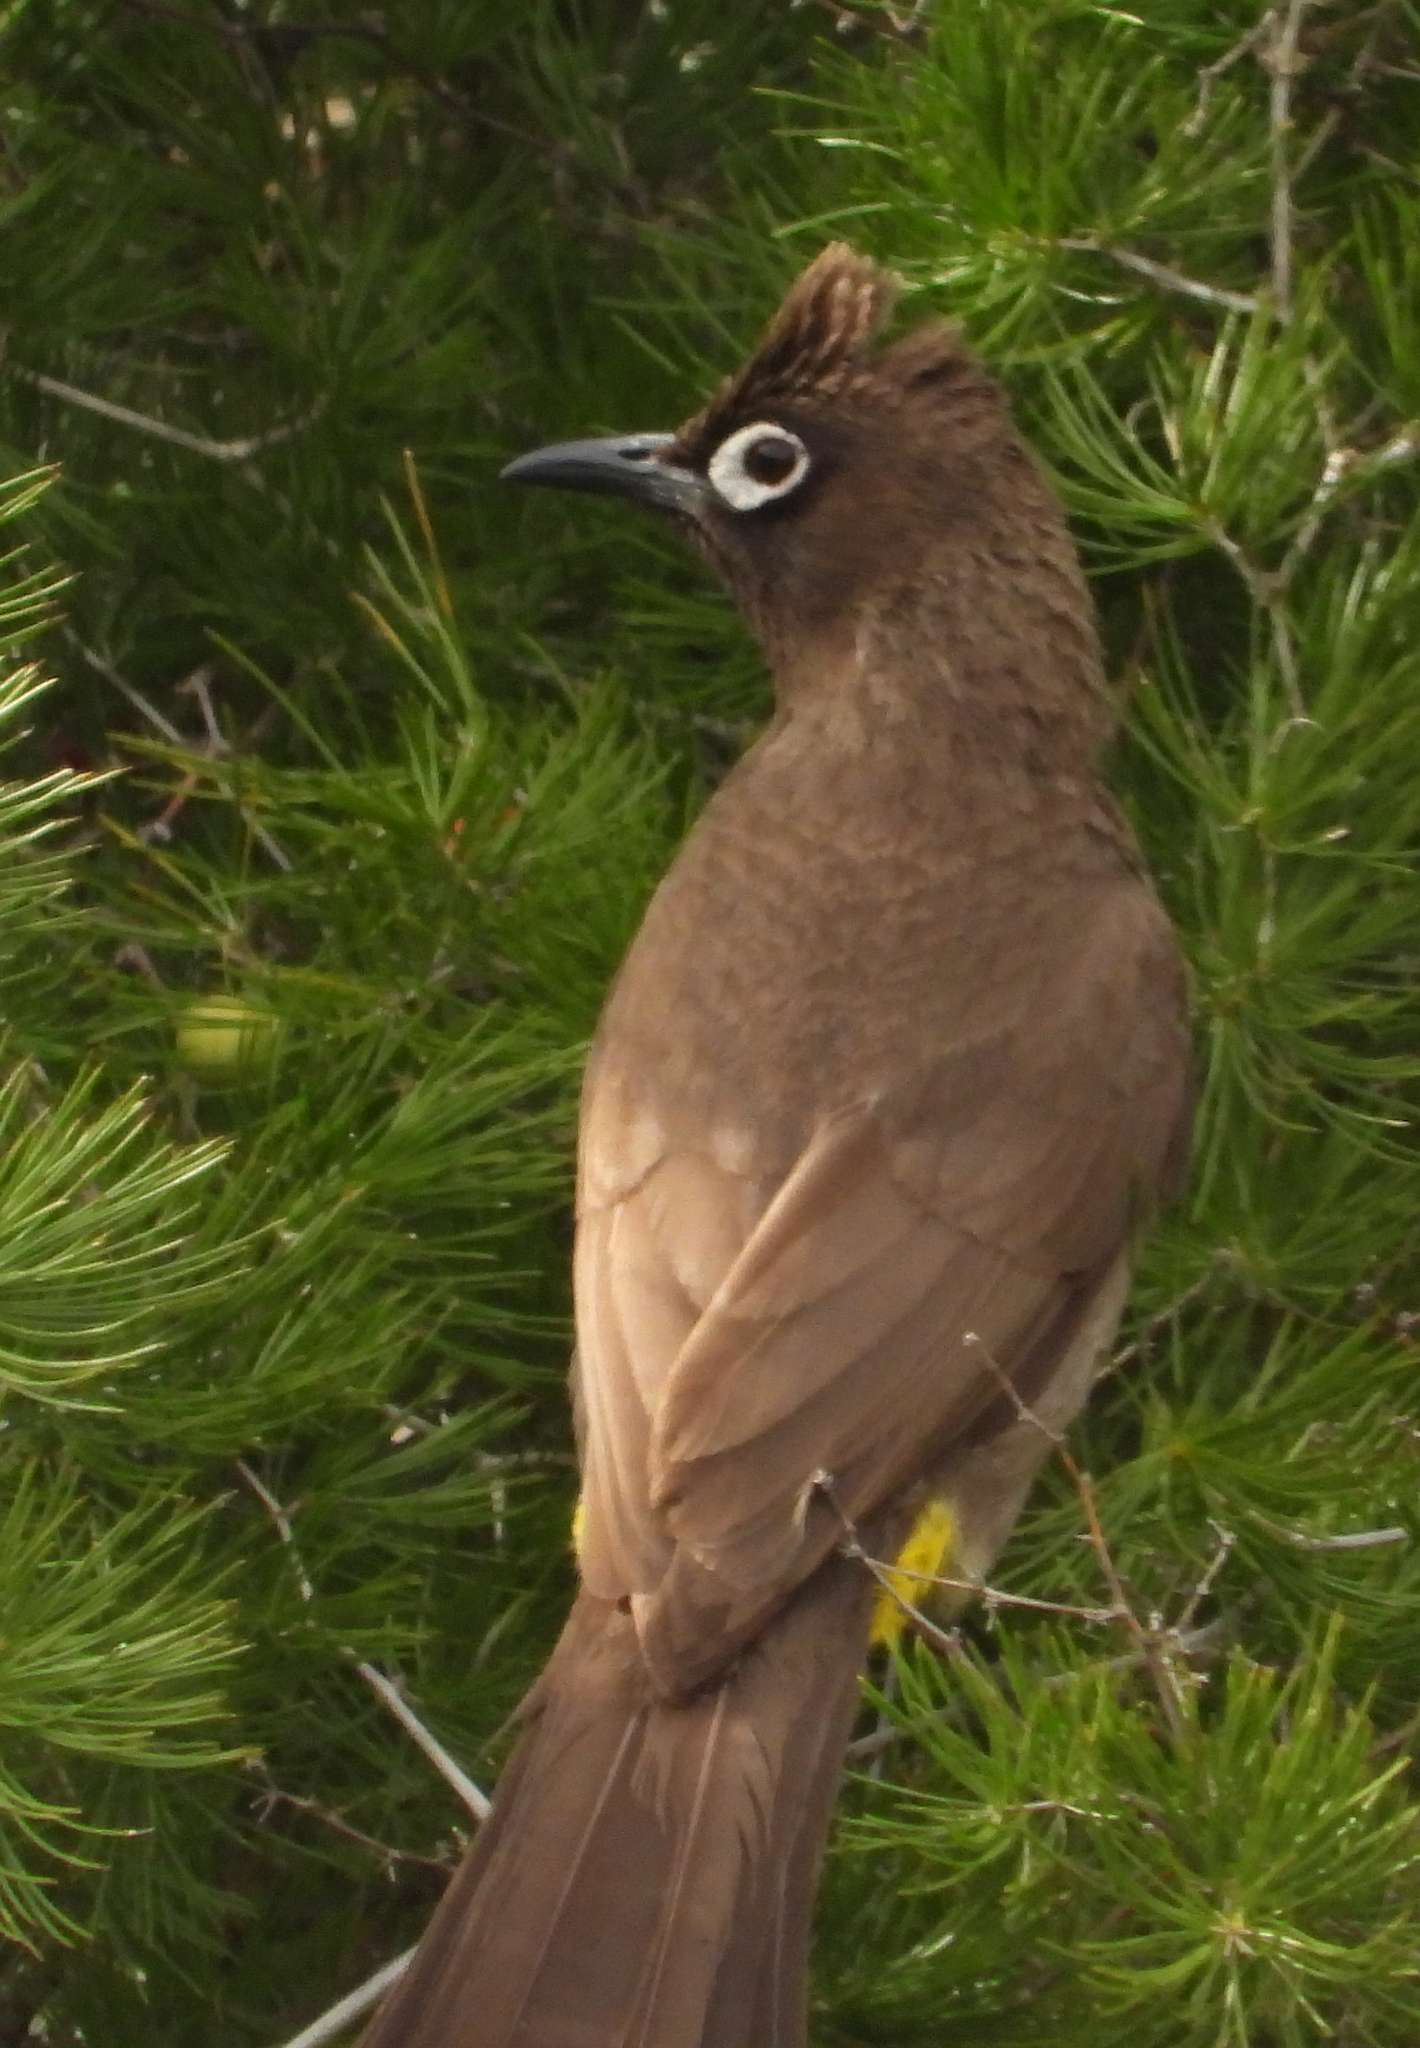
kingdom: Animalia
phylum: Chordata
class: Aves
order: Passeriformes
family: Pycnonotidae
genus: Pycnonotus
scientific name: Pycnonotus capensis
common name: Cape bulbul
